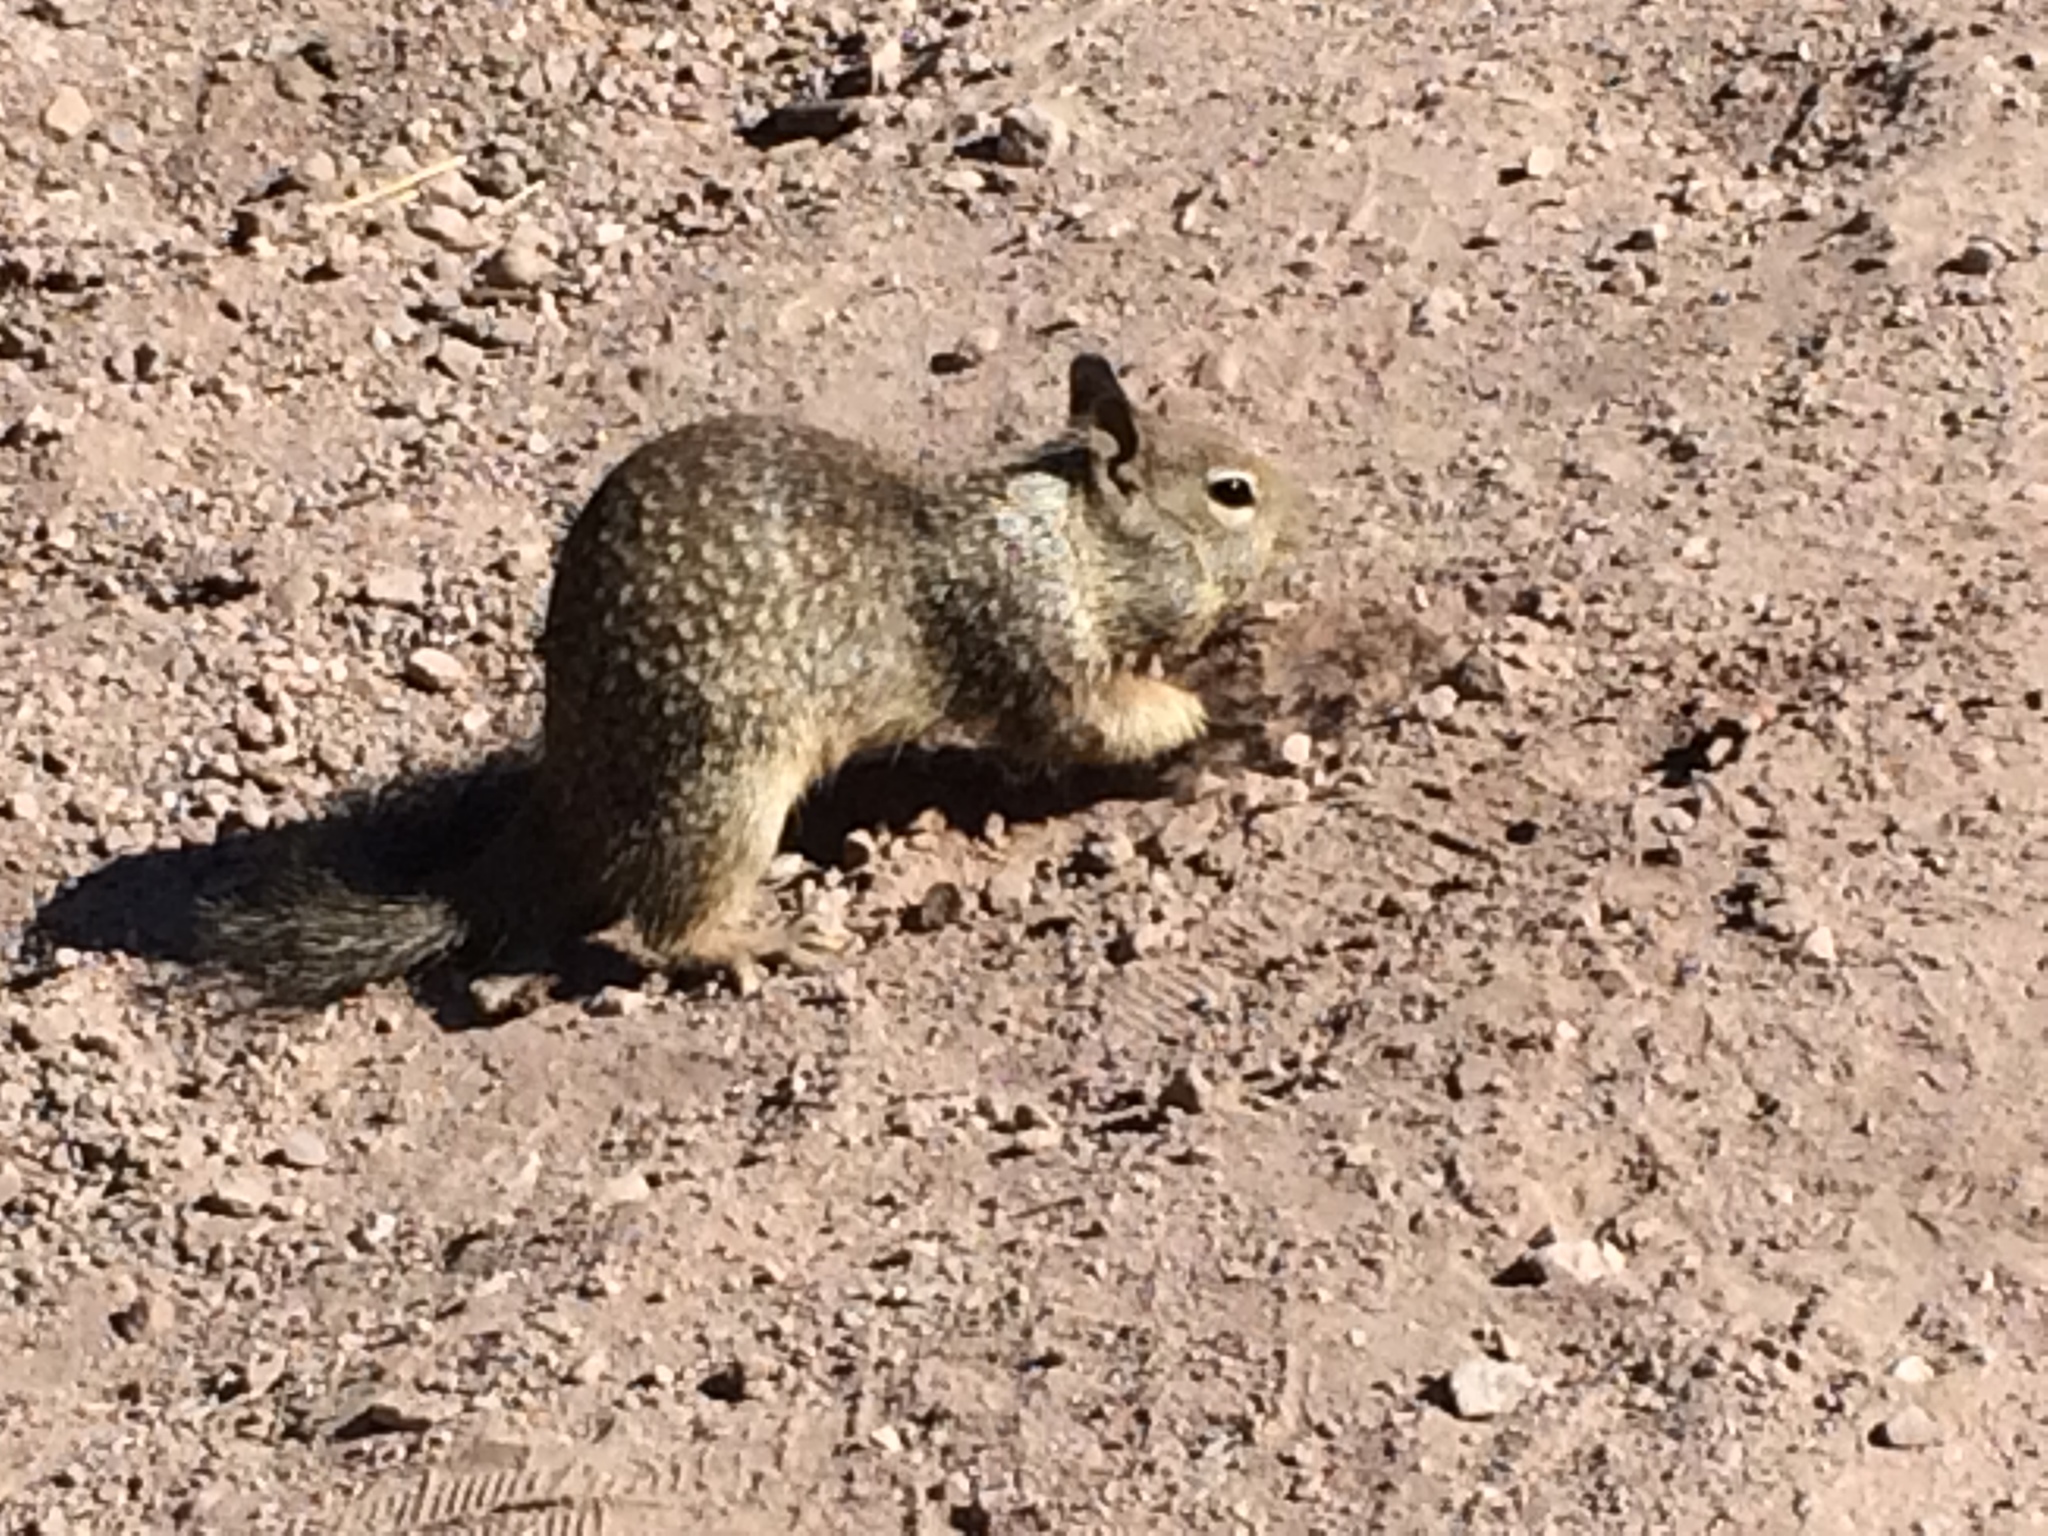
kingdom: Animalia
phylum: Chordata
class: Mammalia
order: Rodentia
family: Sciuridae
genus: Otospermophilus
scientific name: Otospermophilus beecheyi
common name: California ground squirrel
